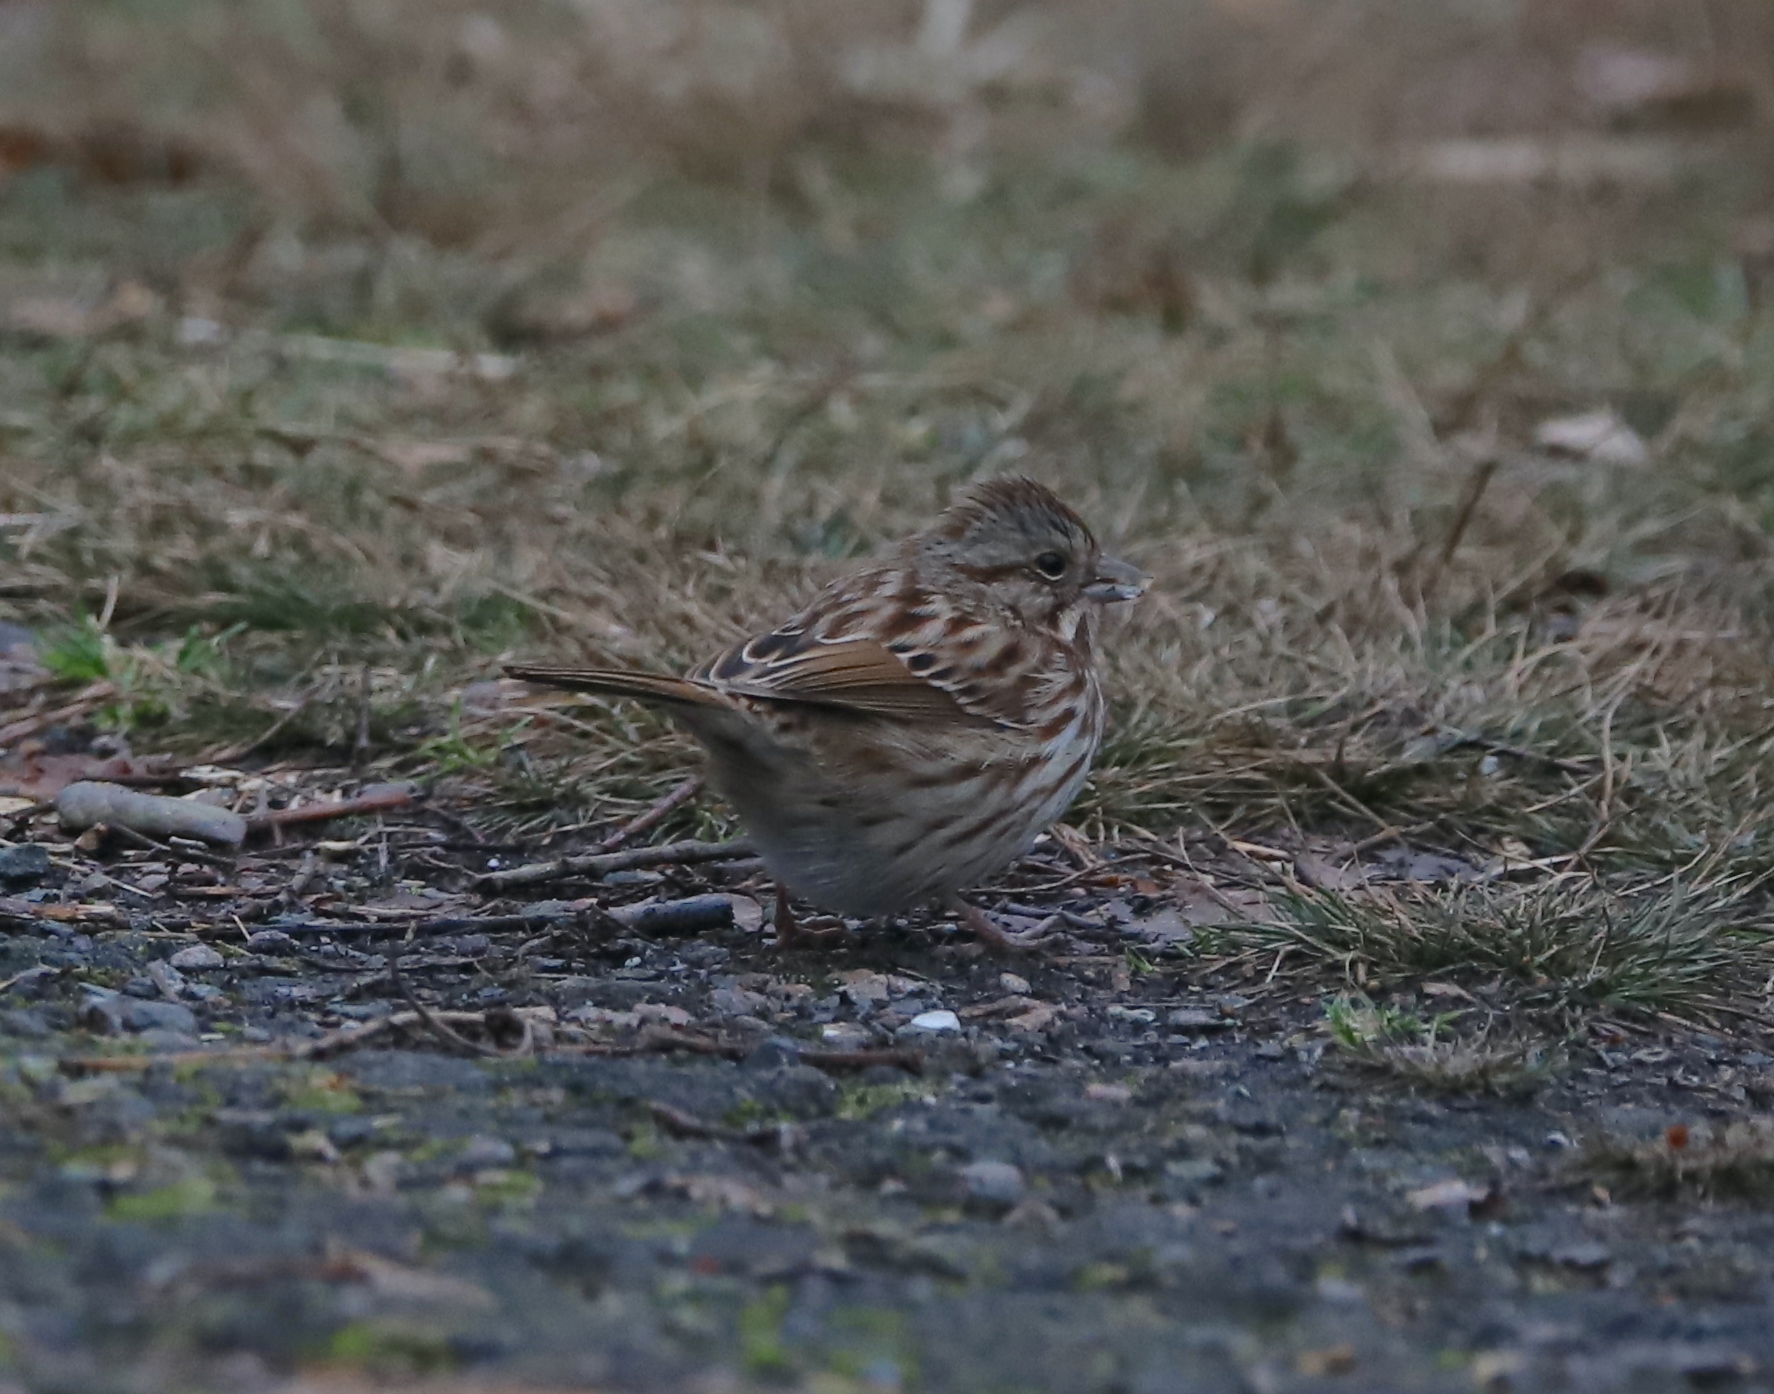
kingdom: Animalia
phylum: Chordata
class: Aves
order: Passeriformes
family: Passerellidae
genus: Melospiza
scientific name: Melospiza melodia
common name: Song sparrow
